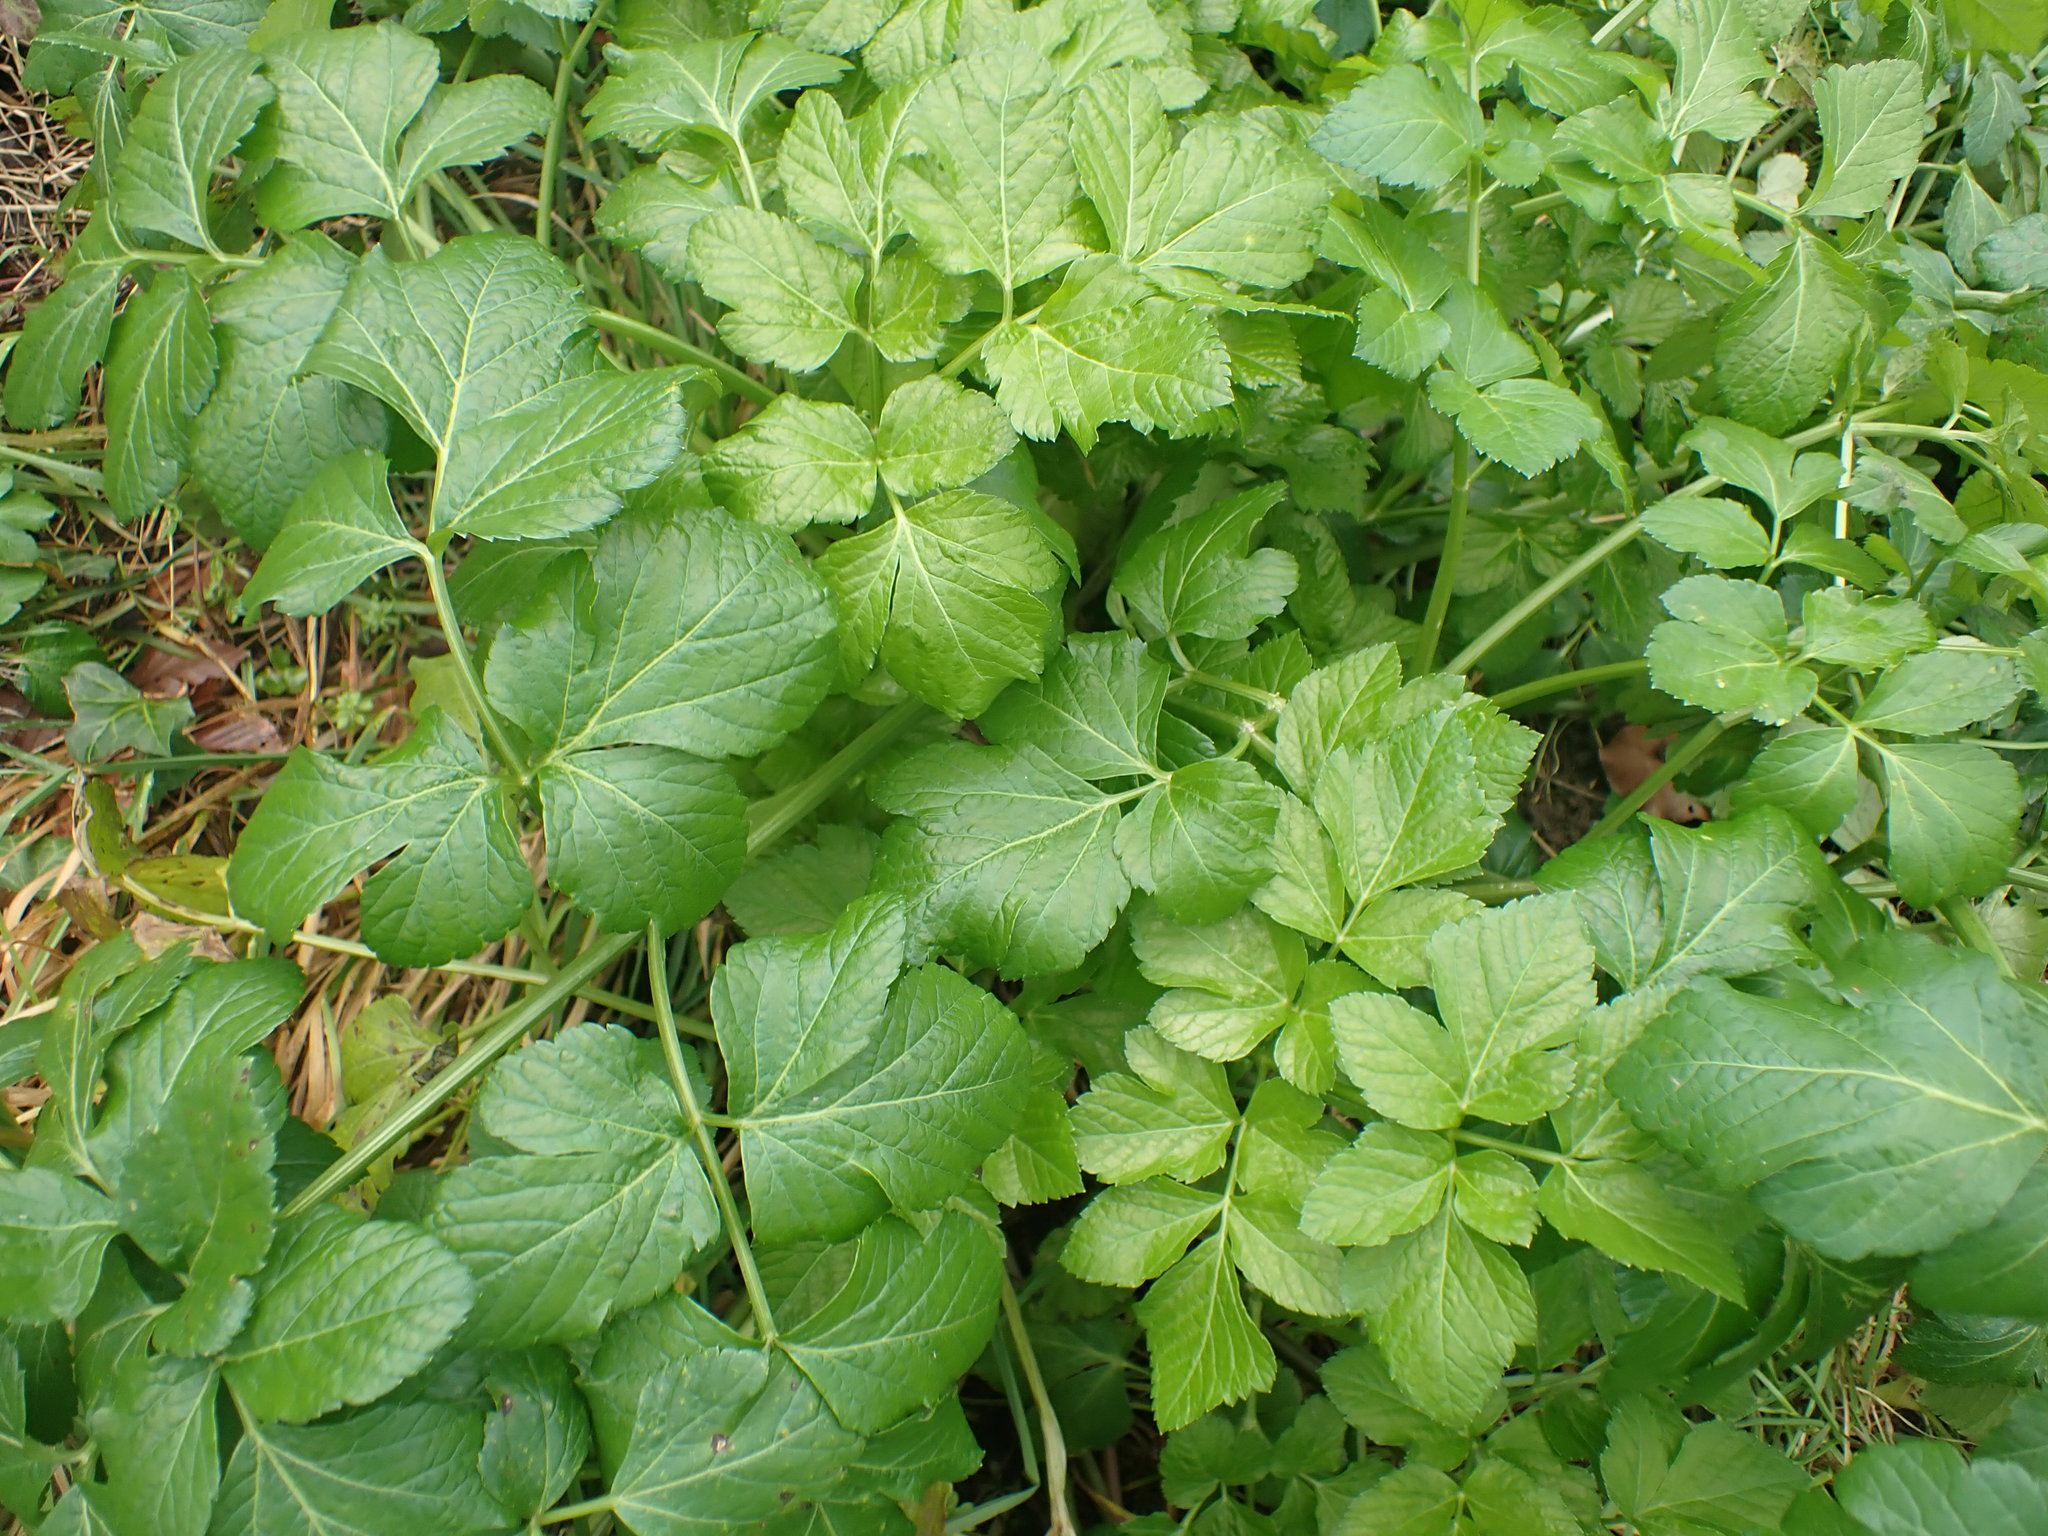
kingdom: Plantae
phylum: Tracheophyta
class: Magnoliopsida
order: Apiales
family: Apiaceae
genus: Smyrnium
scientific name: Smyrnium olusatrum
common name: Alexanders
